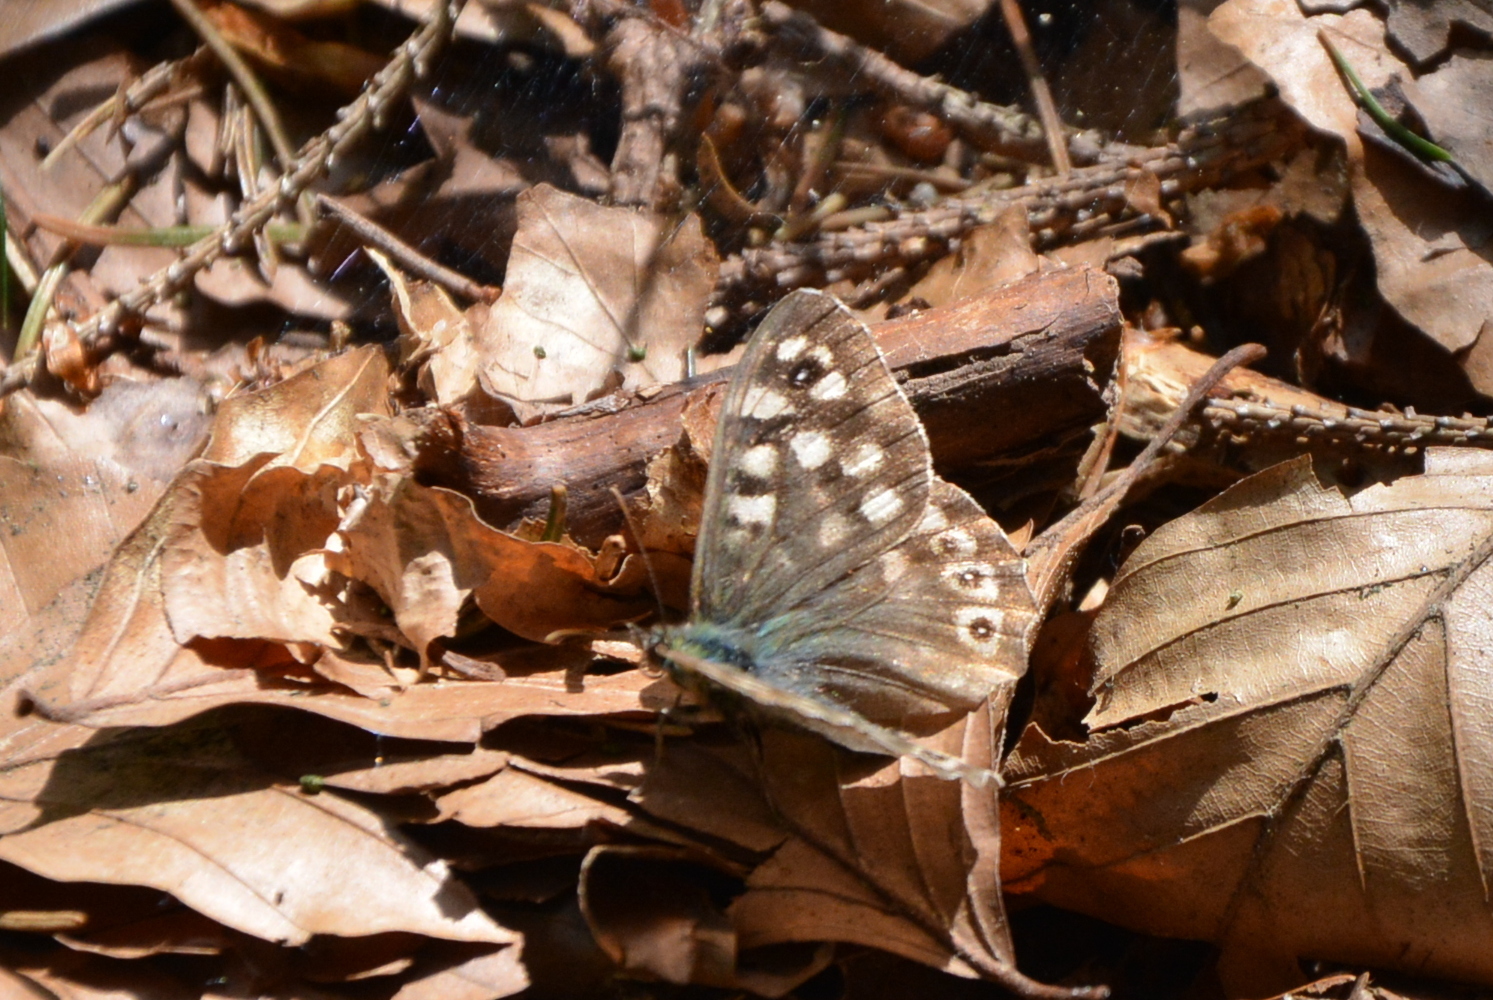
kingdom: Animalia
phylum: Arthropoda
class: Insecta
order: Lepidoptera
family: Nymphalidae
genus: Pararge
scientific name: Pararge aegeria
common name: Speckled wood
